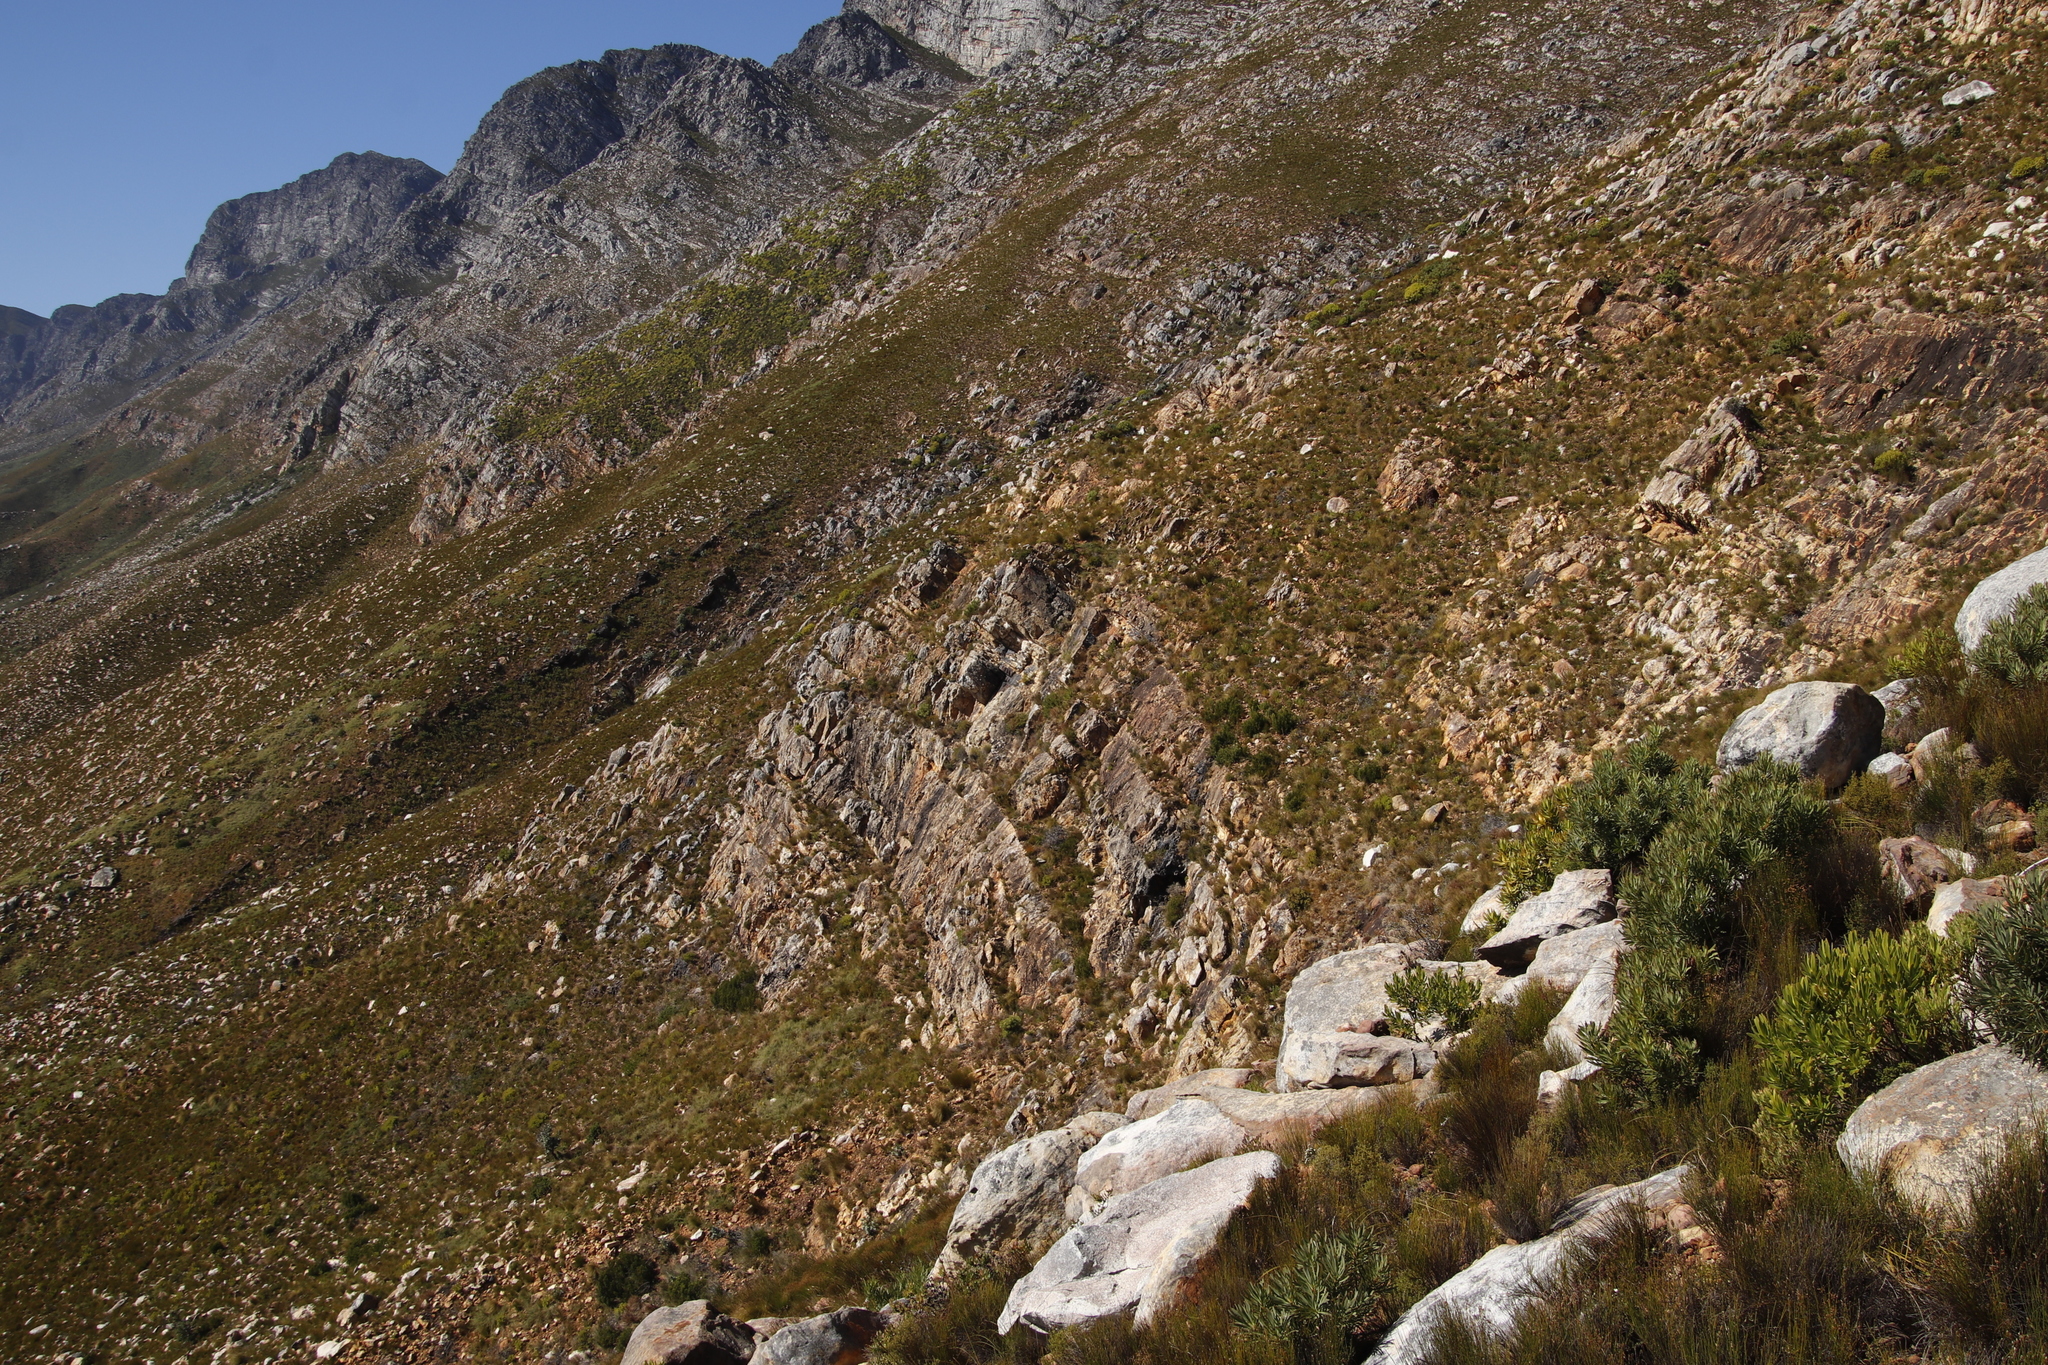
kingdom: Plantae
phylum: Tracheophyta
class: Magnoliopsida
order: Proteales
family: Proteaceae
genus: Protea
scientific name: Protea neriifolia
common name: Blue sugarbush
